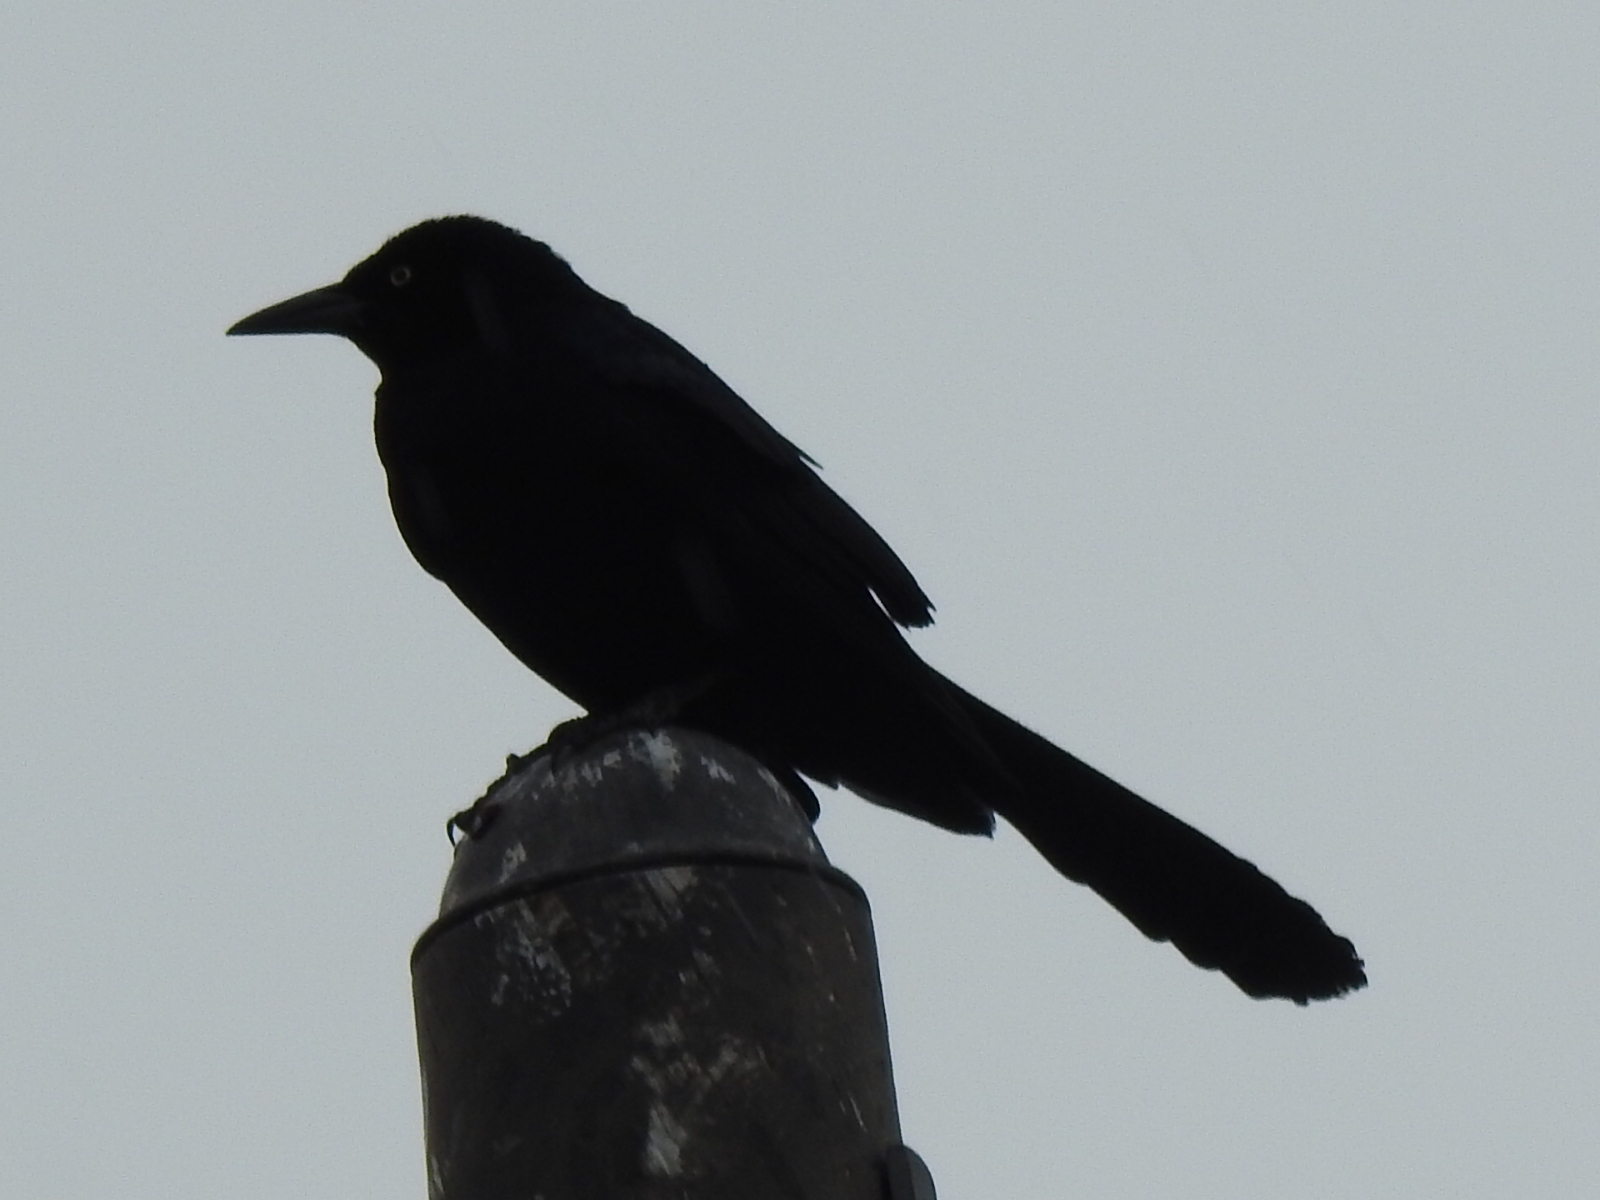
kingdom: Animalia
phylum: Chordata
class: Aves
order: Passeriformes
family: Icteridae
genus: Quiscalus
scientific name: Quiscalus mexicanus
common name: Great-tailed grackle
